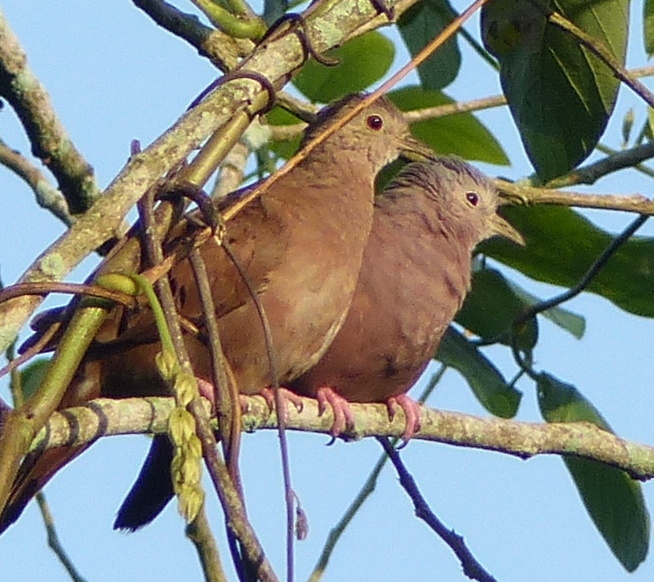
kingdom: Animalia
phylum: Chordata
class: Aves
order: Columbiformes
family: Columbidae
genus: Columbina
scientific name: Columbina talpacoti
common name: Ruddy ground dove
